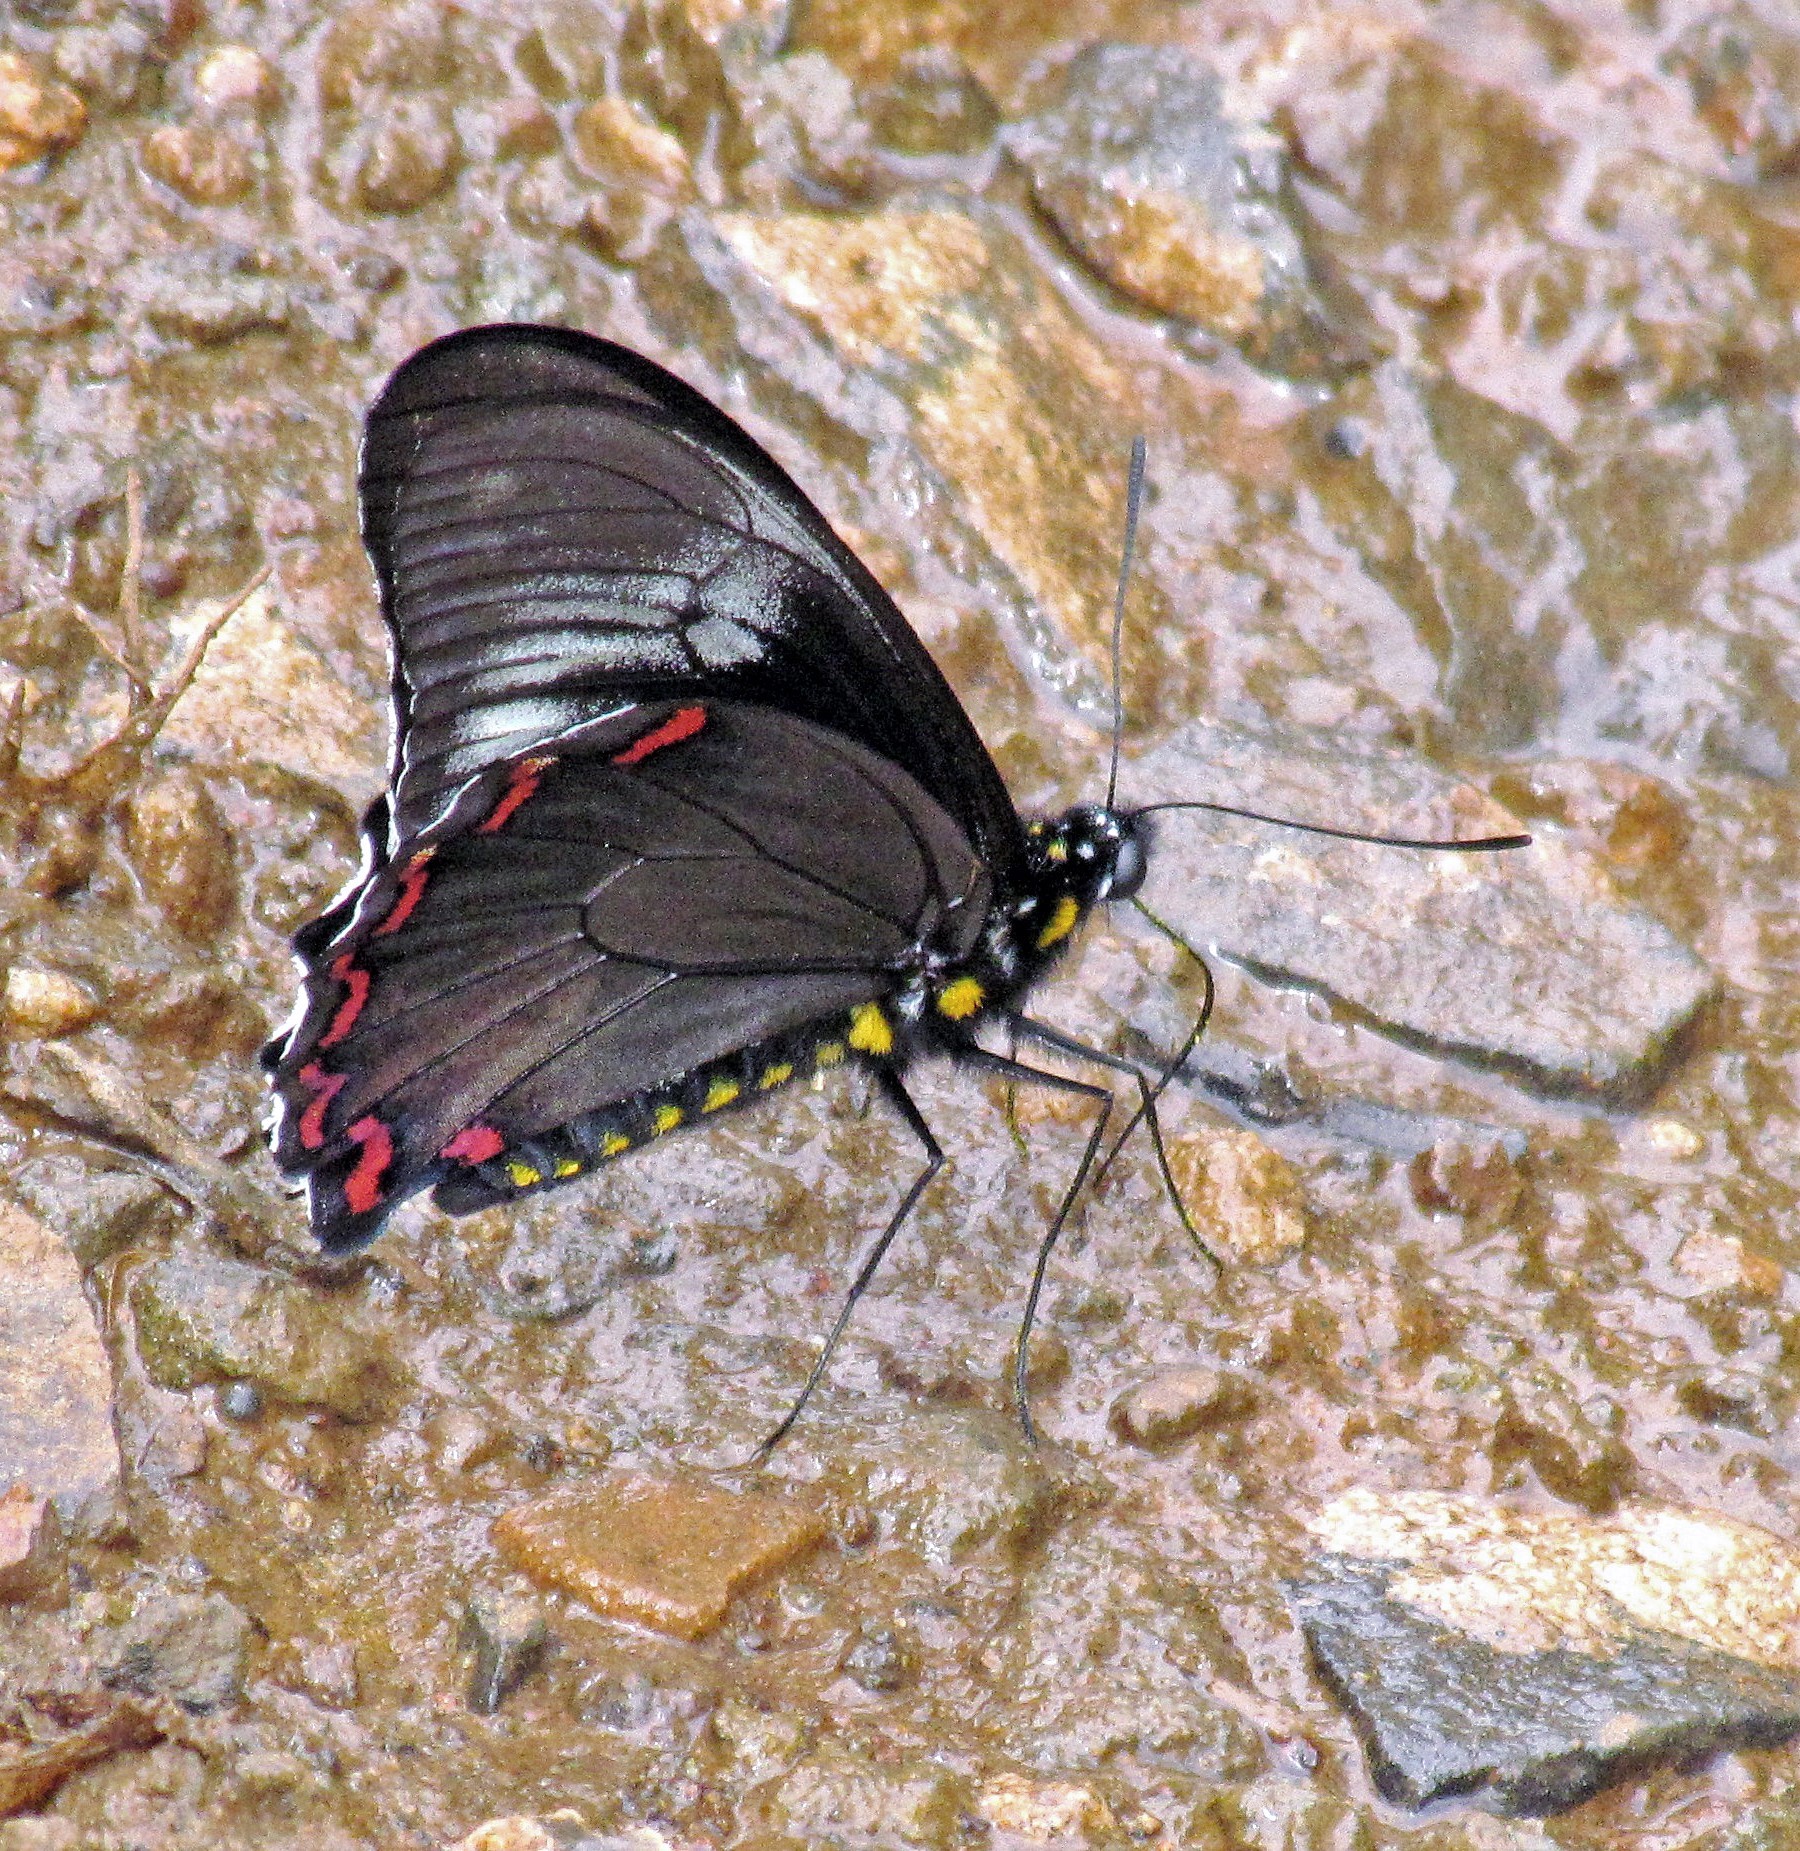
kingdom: Animalia
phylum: Arthropoda
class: Insecta
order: Lepidoptera
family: Papilionidae
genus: Battus
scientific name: Battus polystictus
